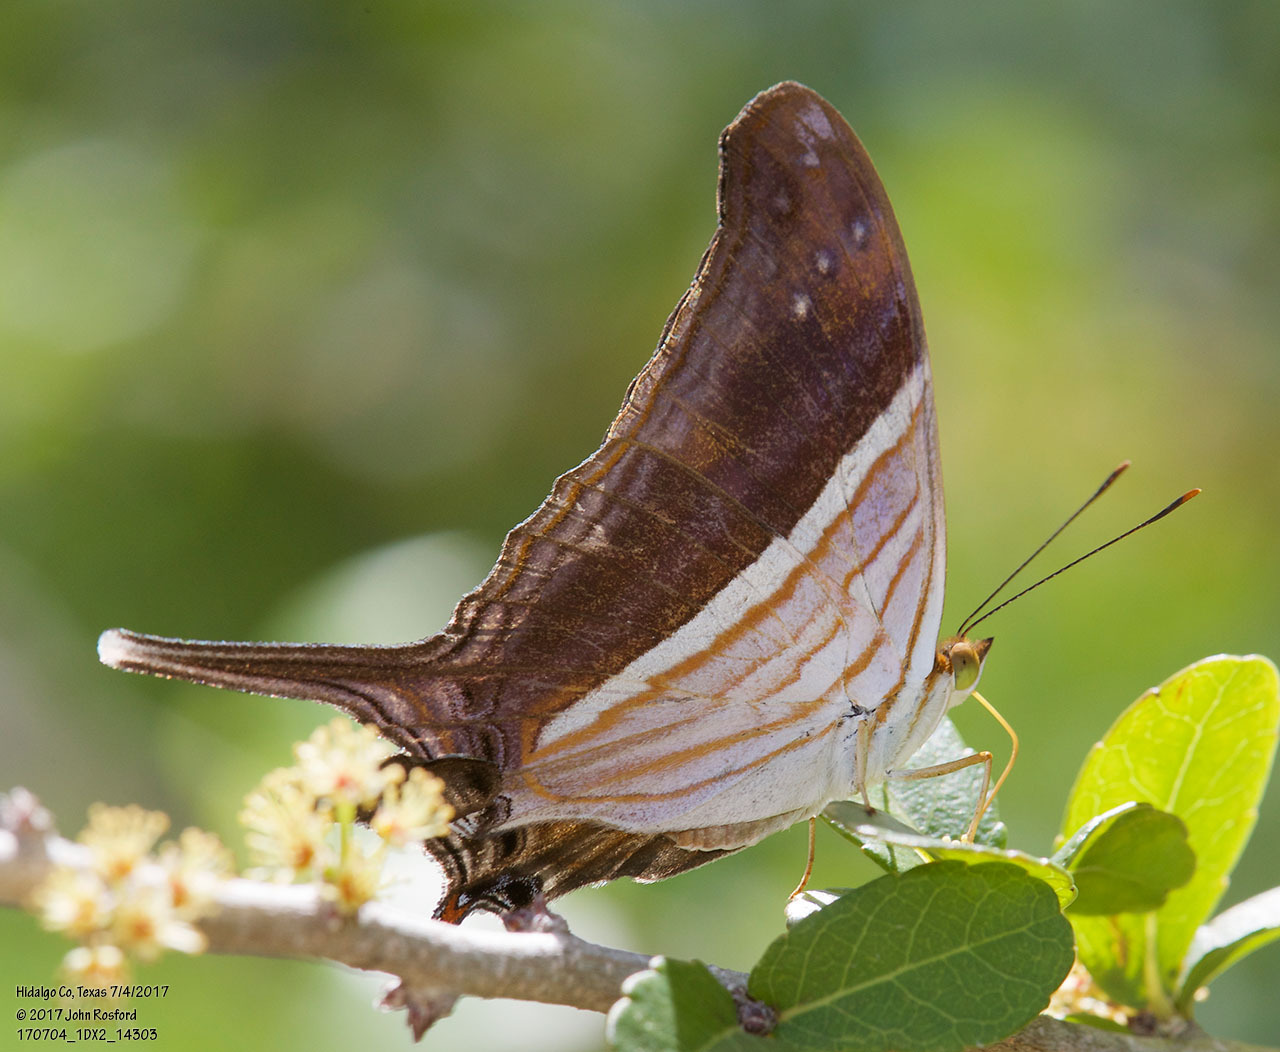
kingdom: Animalia
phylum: Arthropoda
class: Insecta
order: Lepidoptera
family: Nymphalidae
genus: Marpesia
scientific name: Marpesia chiron
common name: Many-banded daggerwing
